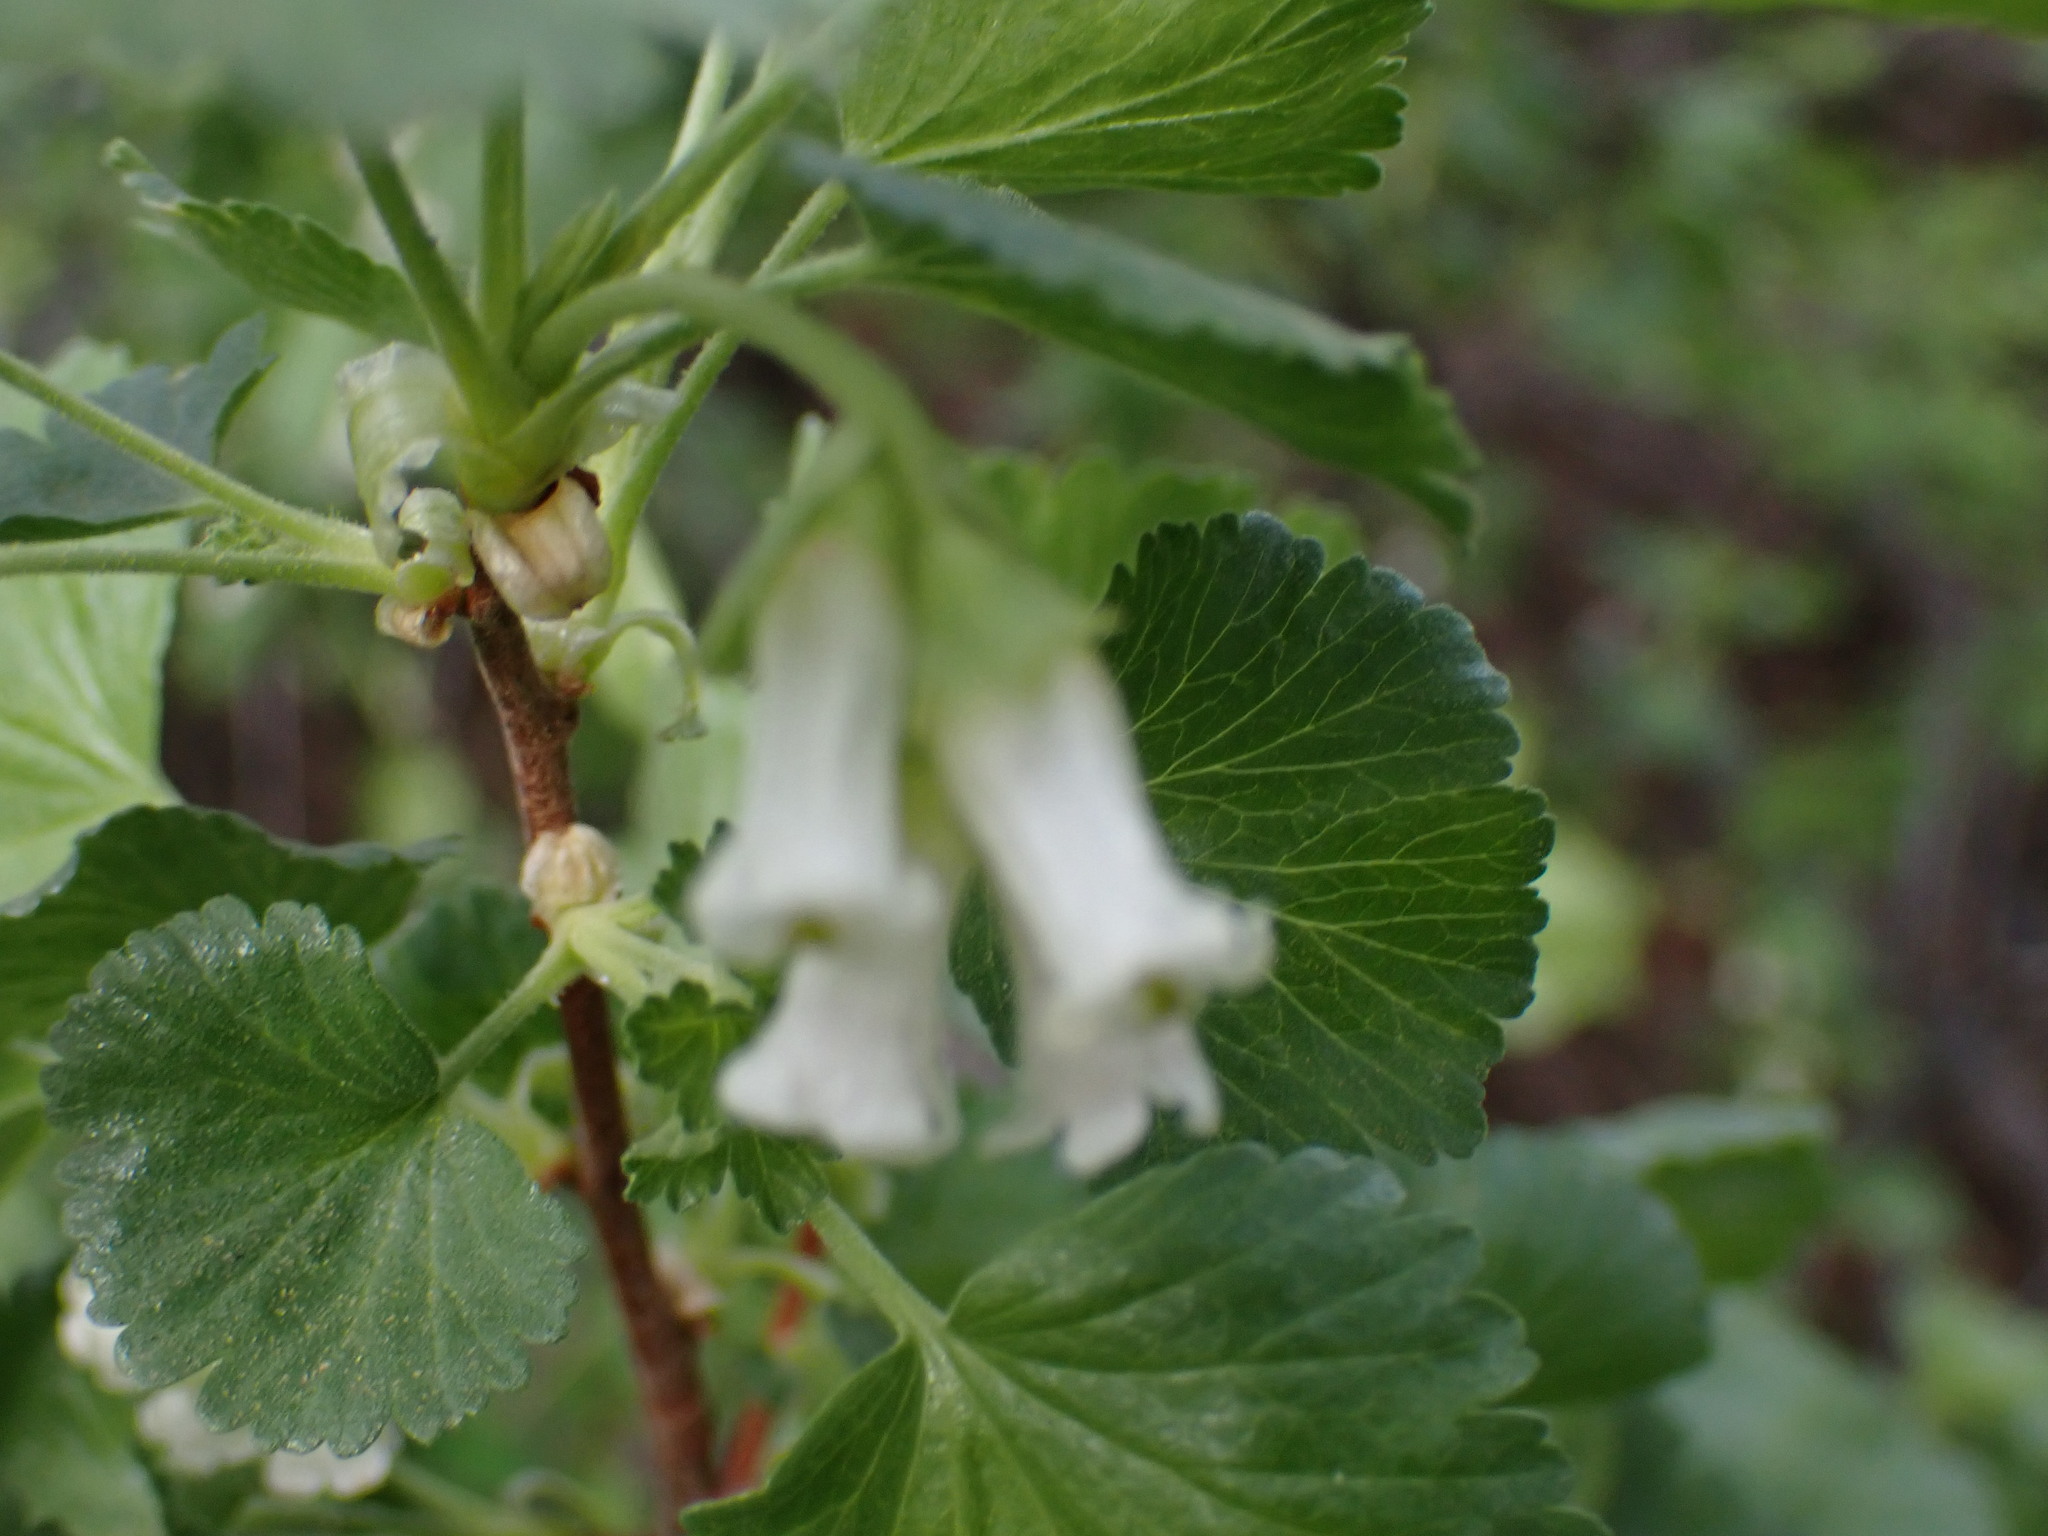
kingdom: Plantae
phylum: Tracheophyta
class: Magnoliopsida
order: Saxifragales
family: Grossulariaceae
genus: Ribes
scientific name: Ribes cereum
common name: Wax currant
